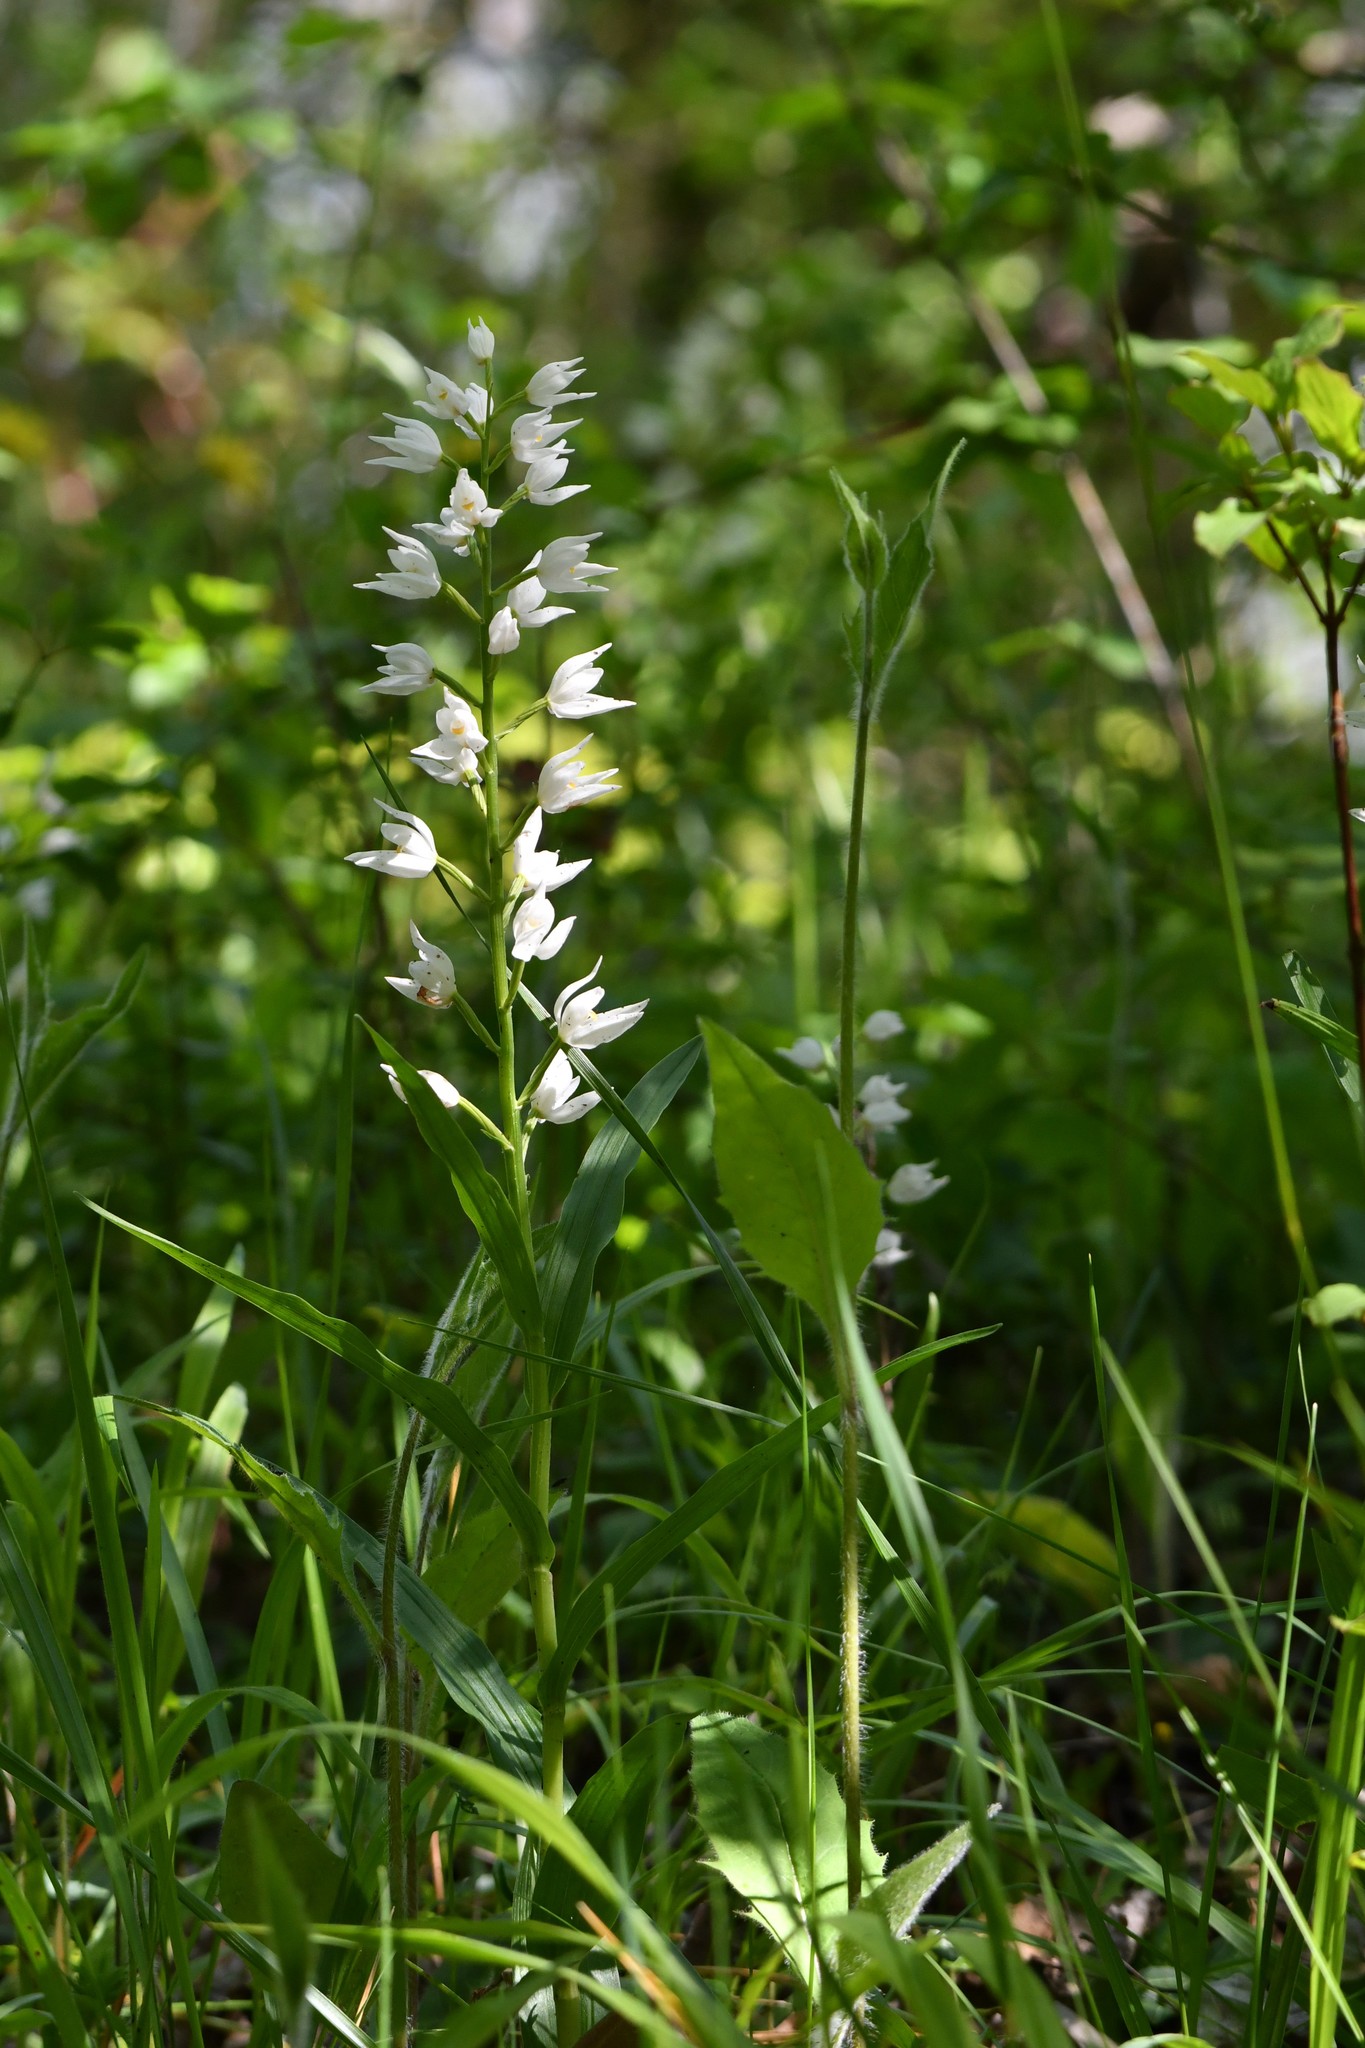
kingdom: Plantae
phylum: Tracheophyta
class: Liliopsida
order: Asparagales
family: Orchidaceae
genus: Cephalanthera
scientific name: Cephalanthera longifolia
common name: Narrow-leaved helleborine
